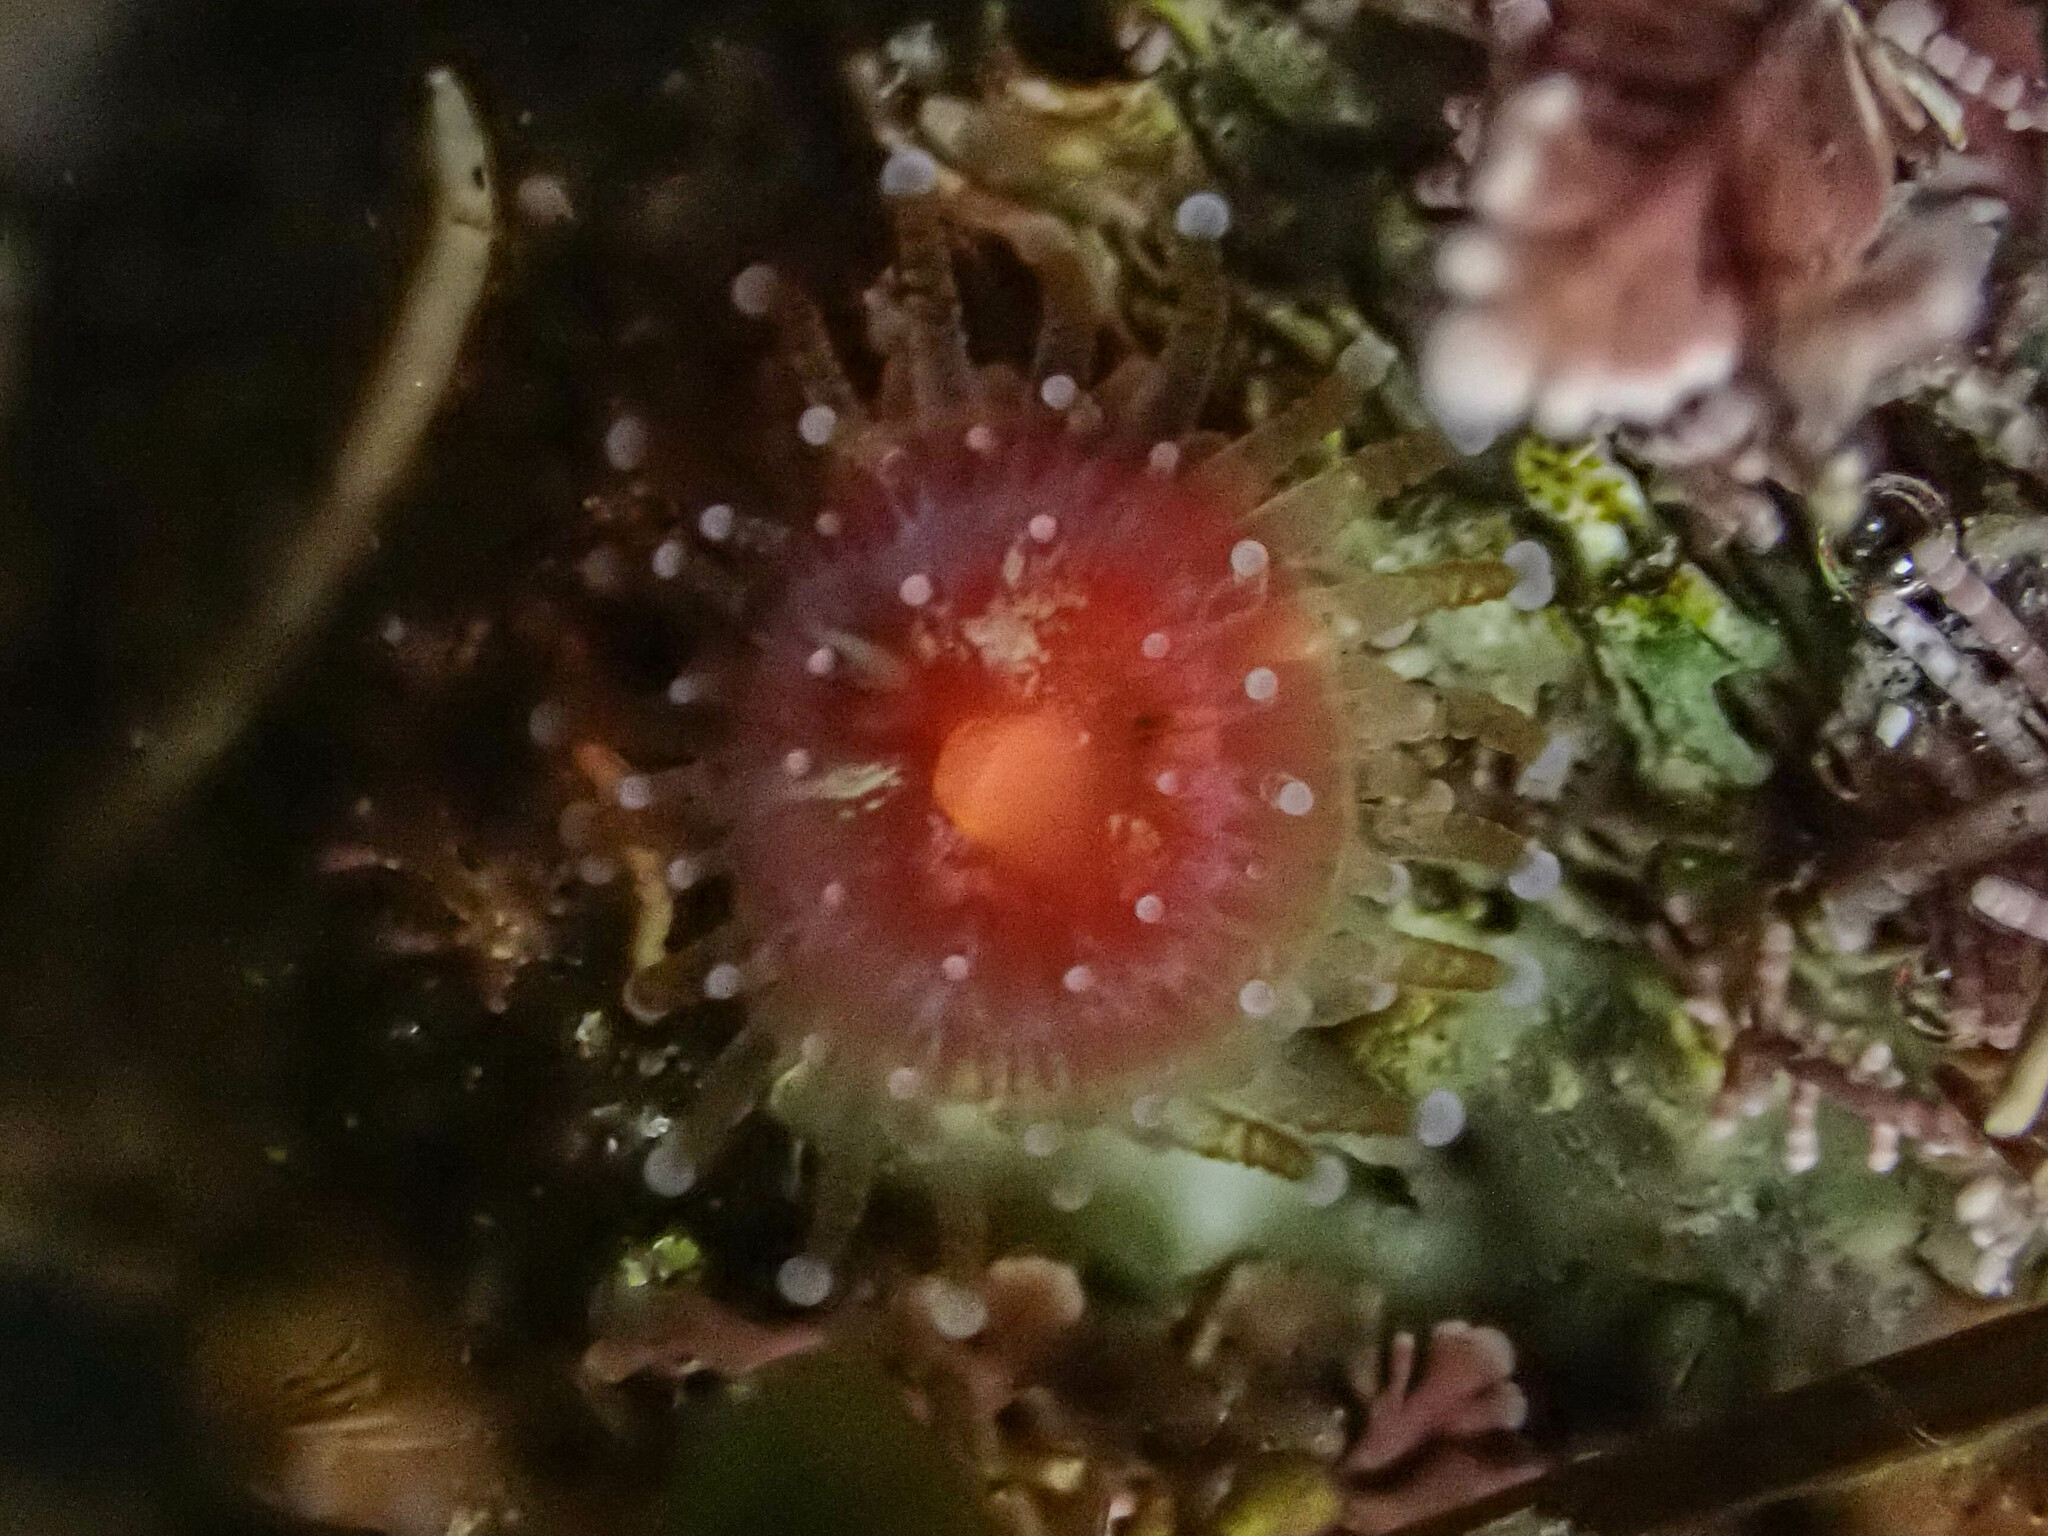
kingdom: Animalia
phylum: Cnidaria
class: Anthozoa
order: Corallimorpharia
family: Corallimorphidae
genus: Corynactis
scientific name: Corynactis californica
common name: Strawberry corallimorpharian
